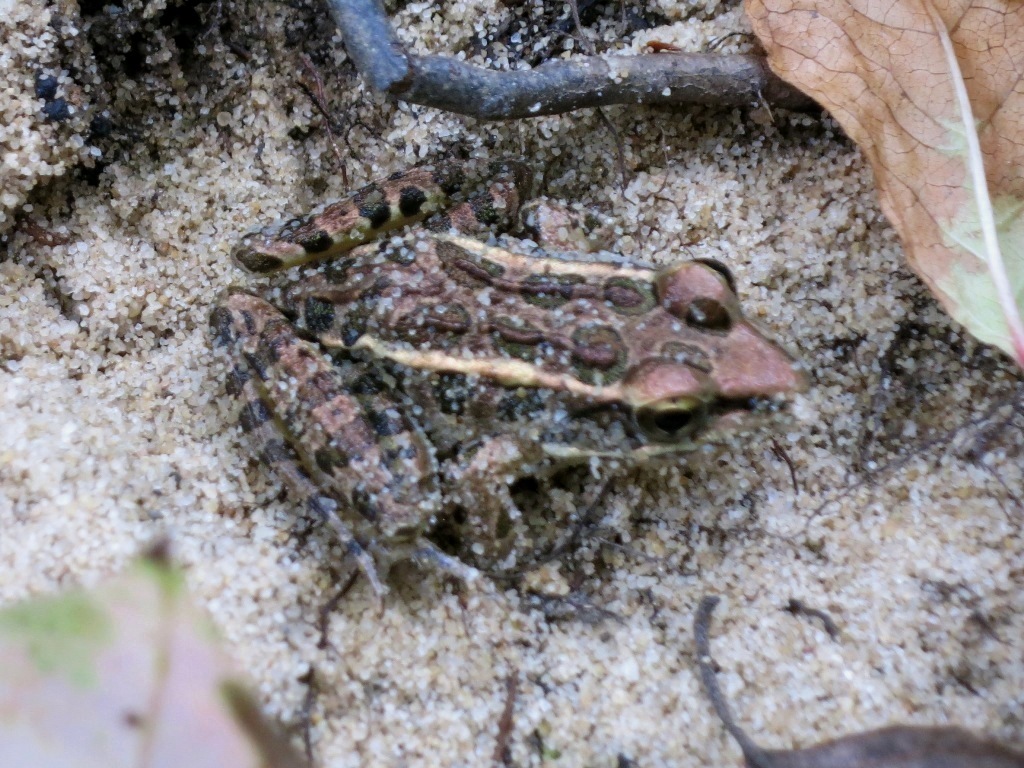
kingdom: Animalia
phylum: Chordata
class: Amphibia
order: Anura
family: Ranidae
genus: Lithobates
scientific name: Lithobates palustris
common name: Pickerel frog
